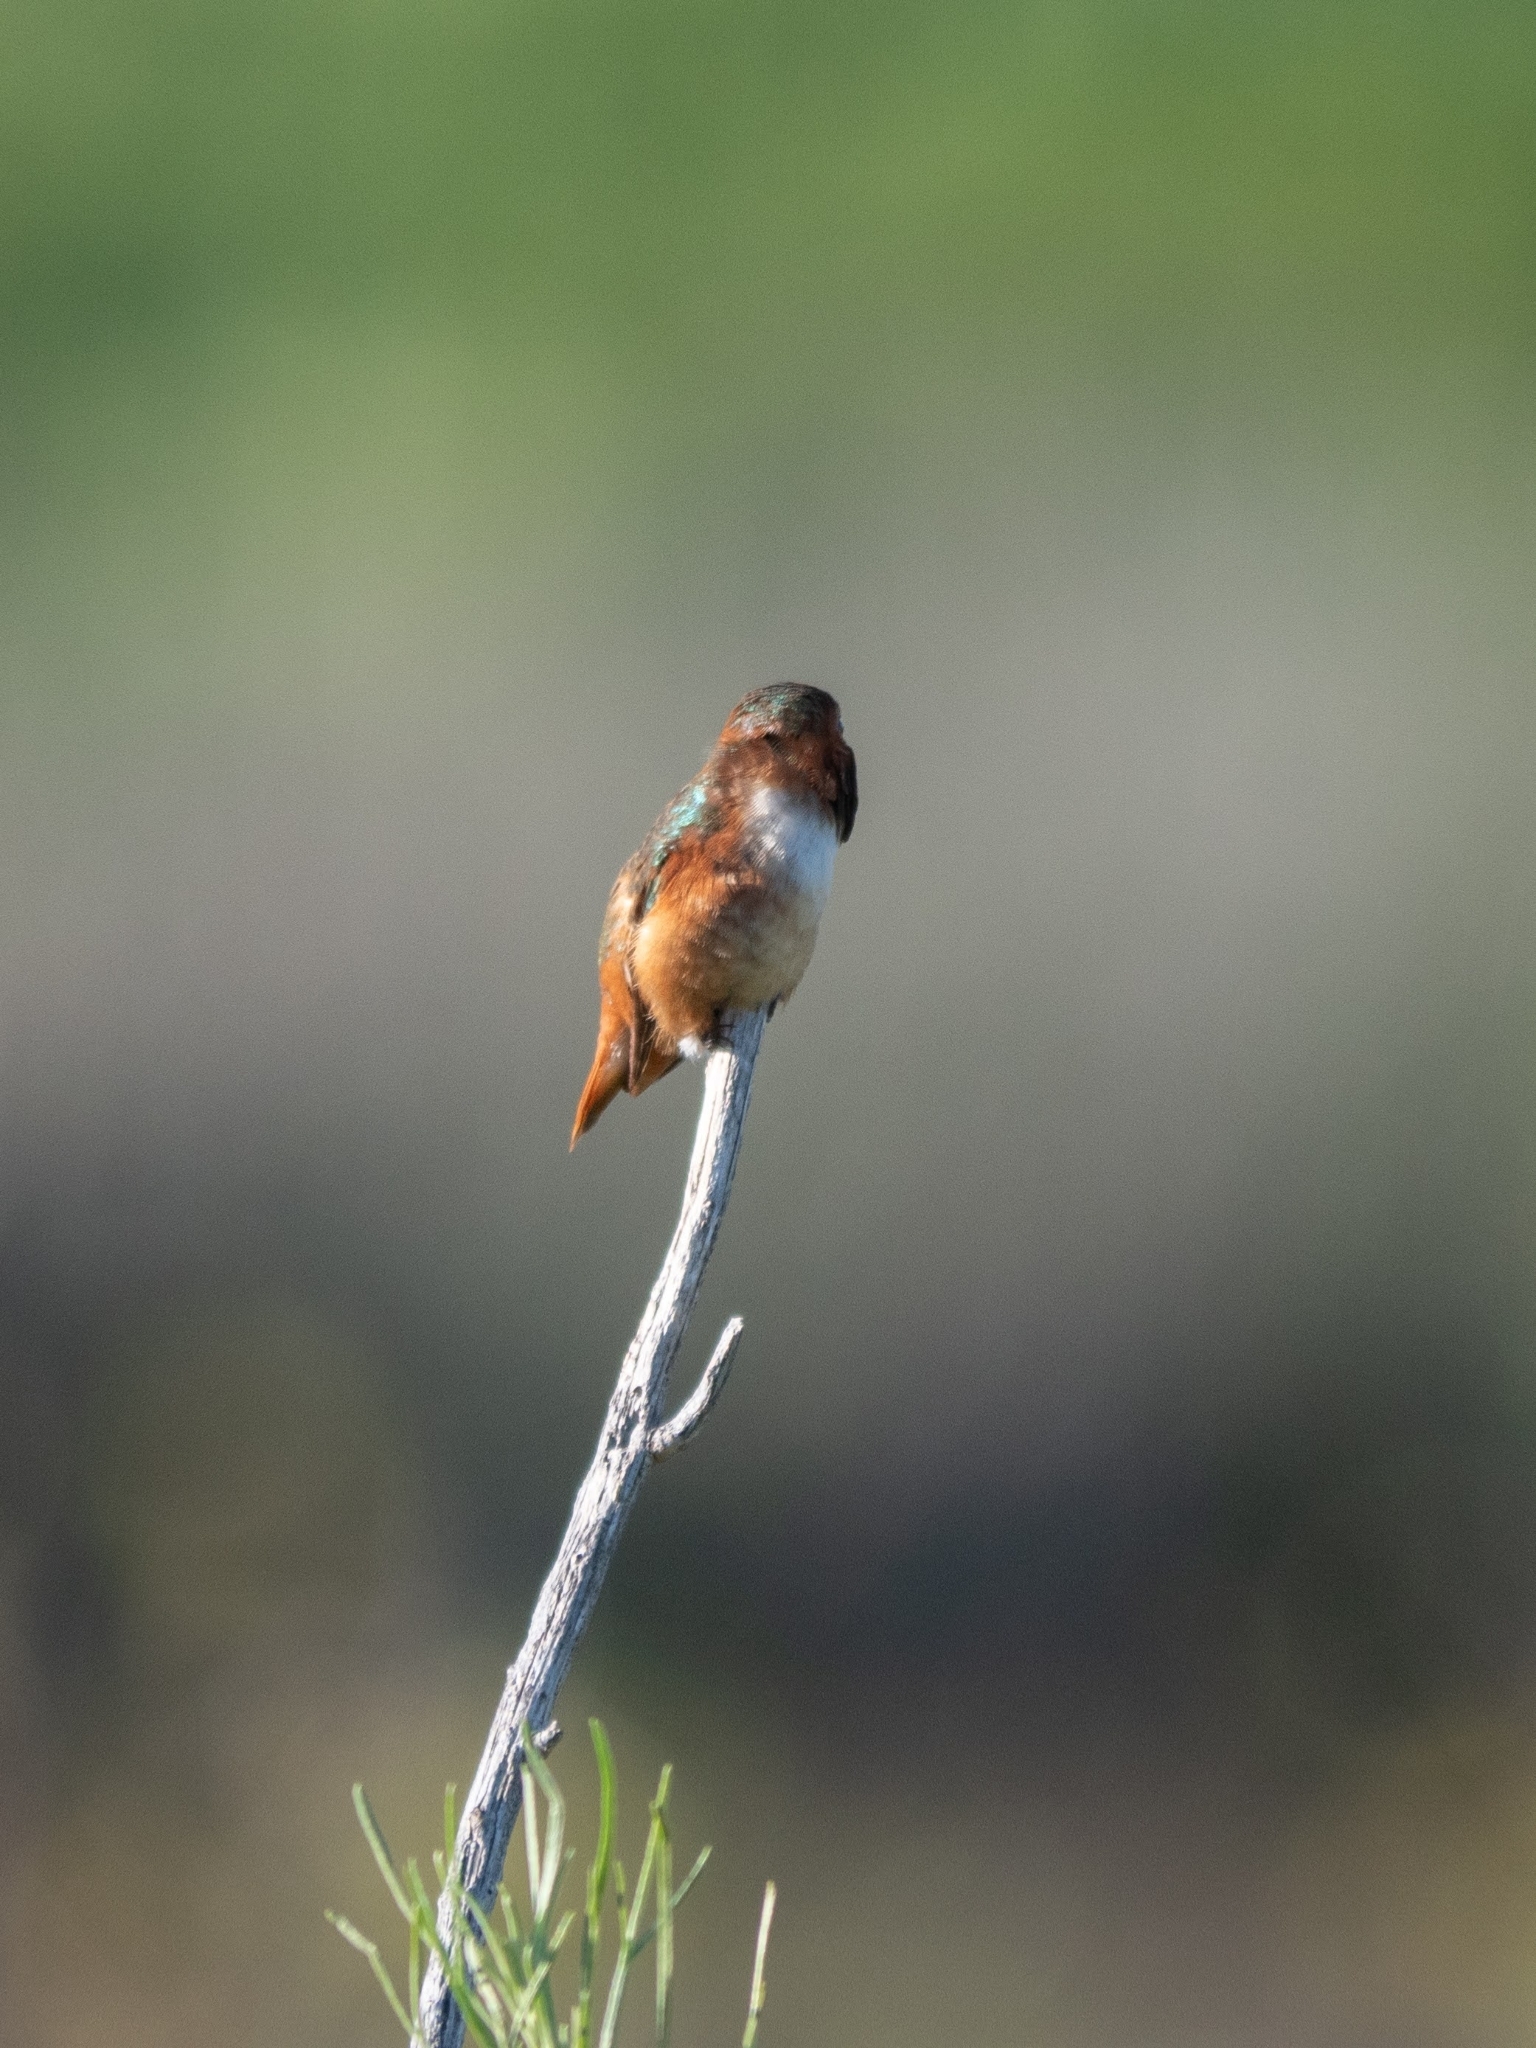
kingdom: Animalia
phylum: Chordata
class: Aves
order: Apodiformes
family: Trochilidae
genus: Selasphorus
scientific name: Selasphorus sasin
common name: Allen's hummingbird
